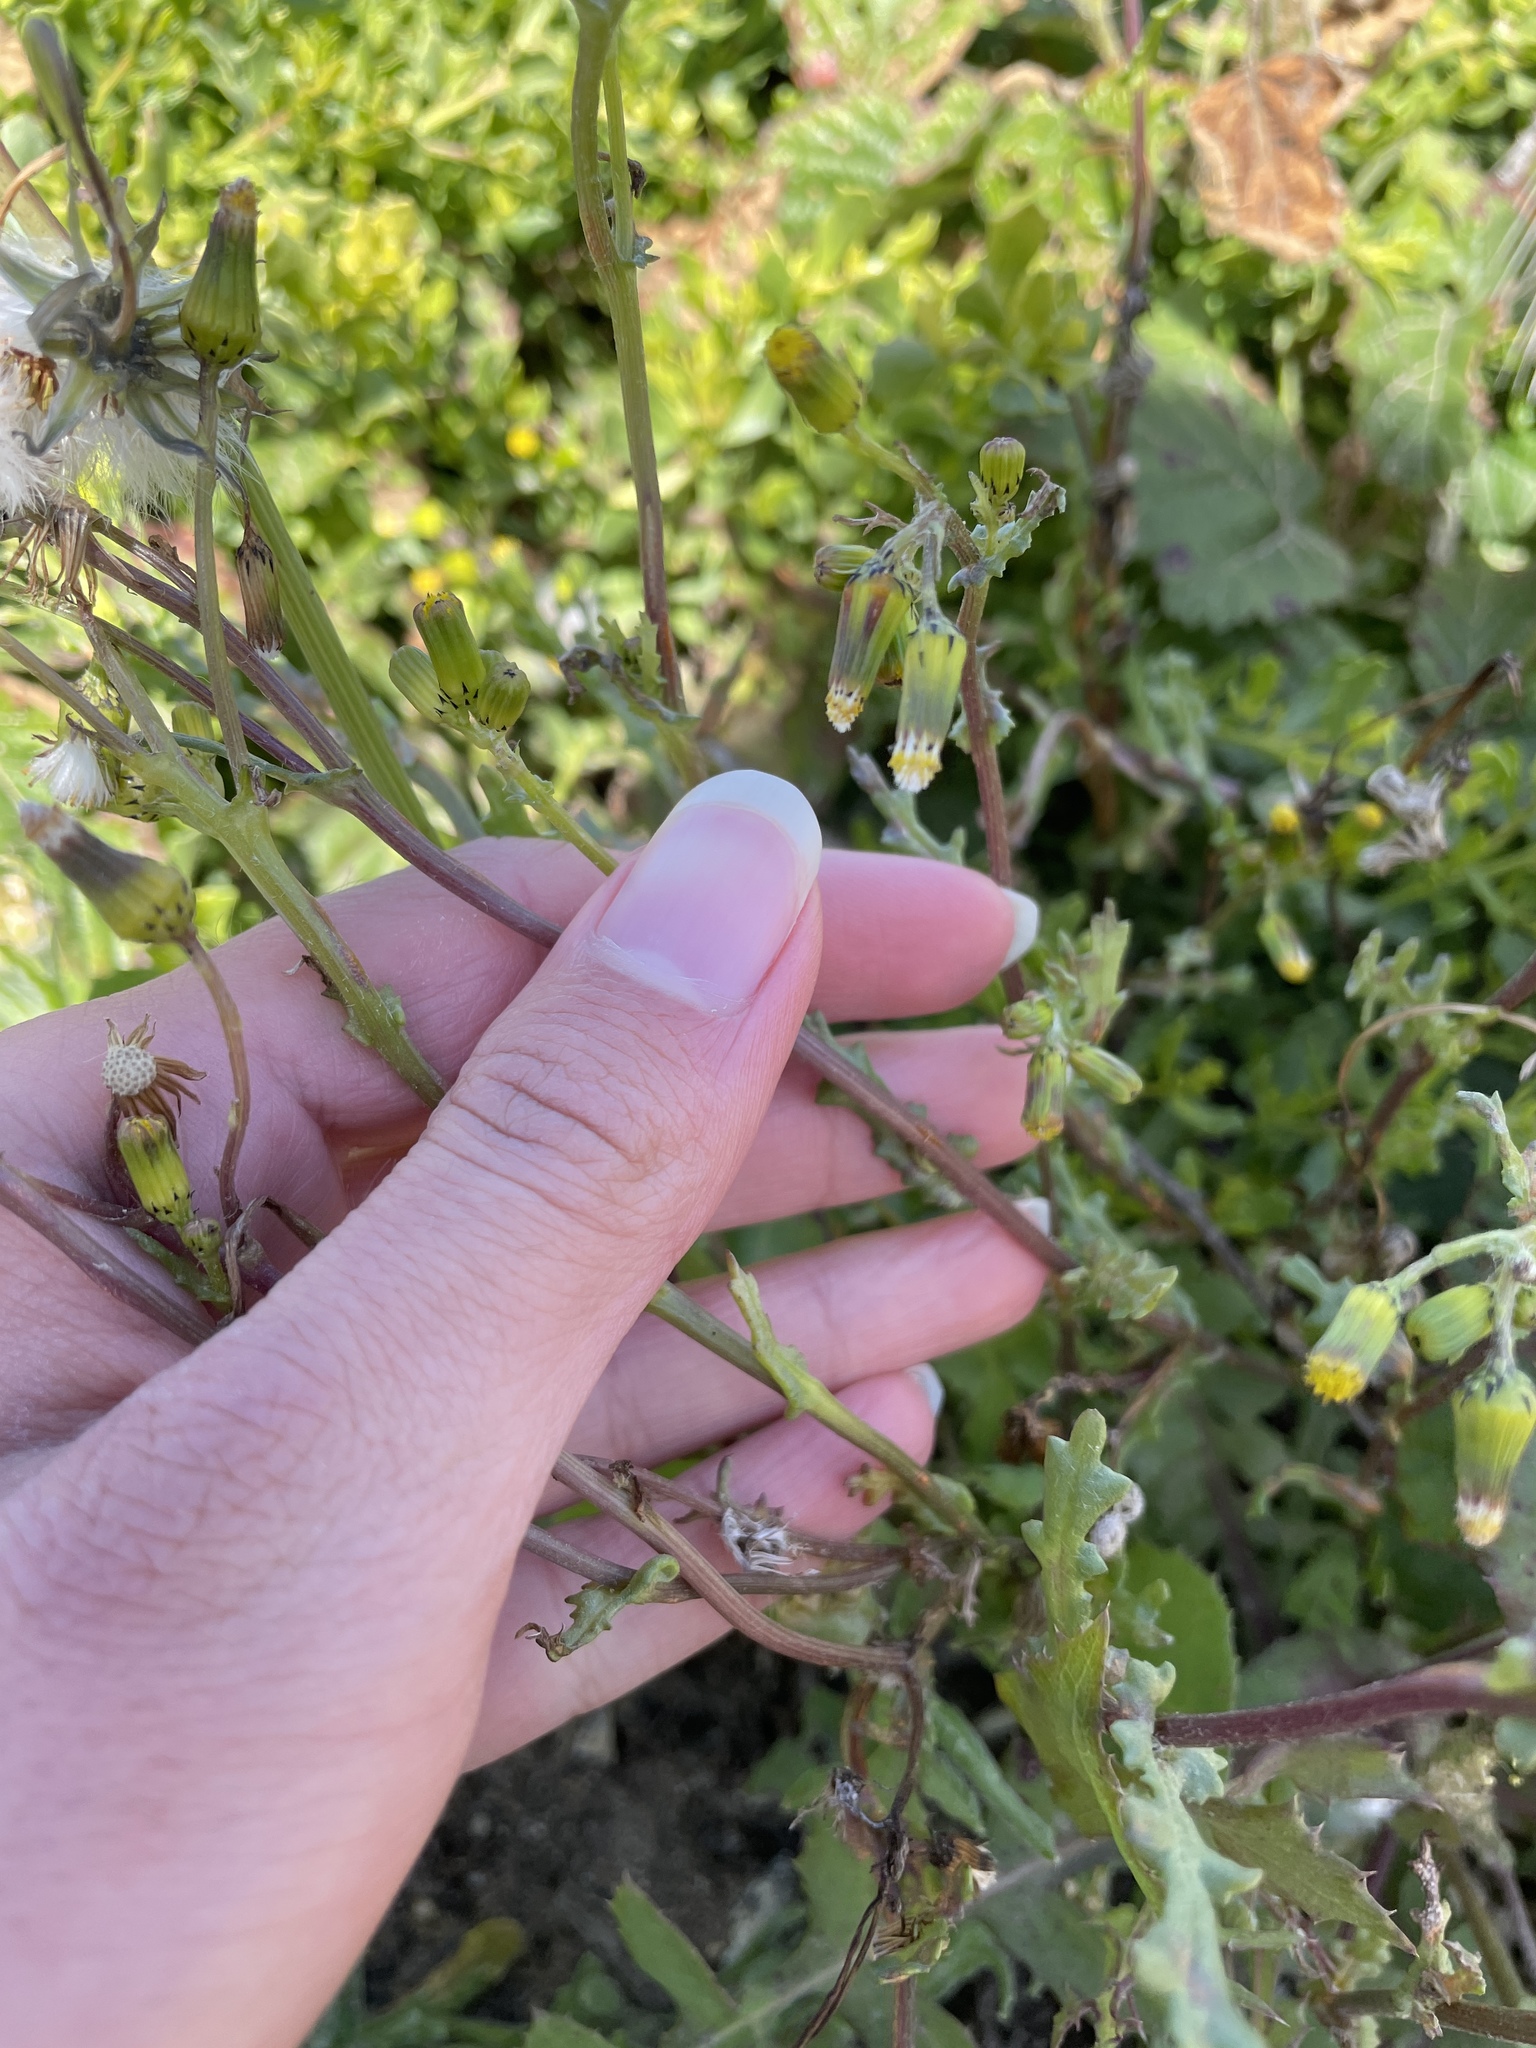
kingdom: Plantae
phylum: Tracheophyta
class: Magnoliopsida
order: Asterales
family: Asteraceae
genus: Senecio
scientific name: Senecio vulgaris
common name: Old-man-in-the-spring
